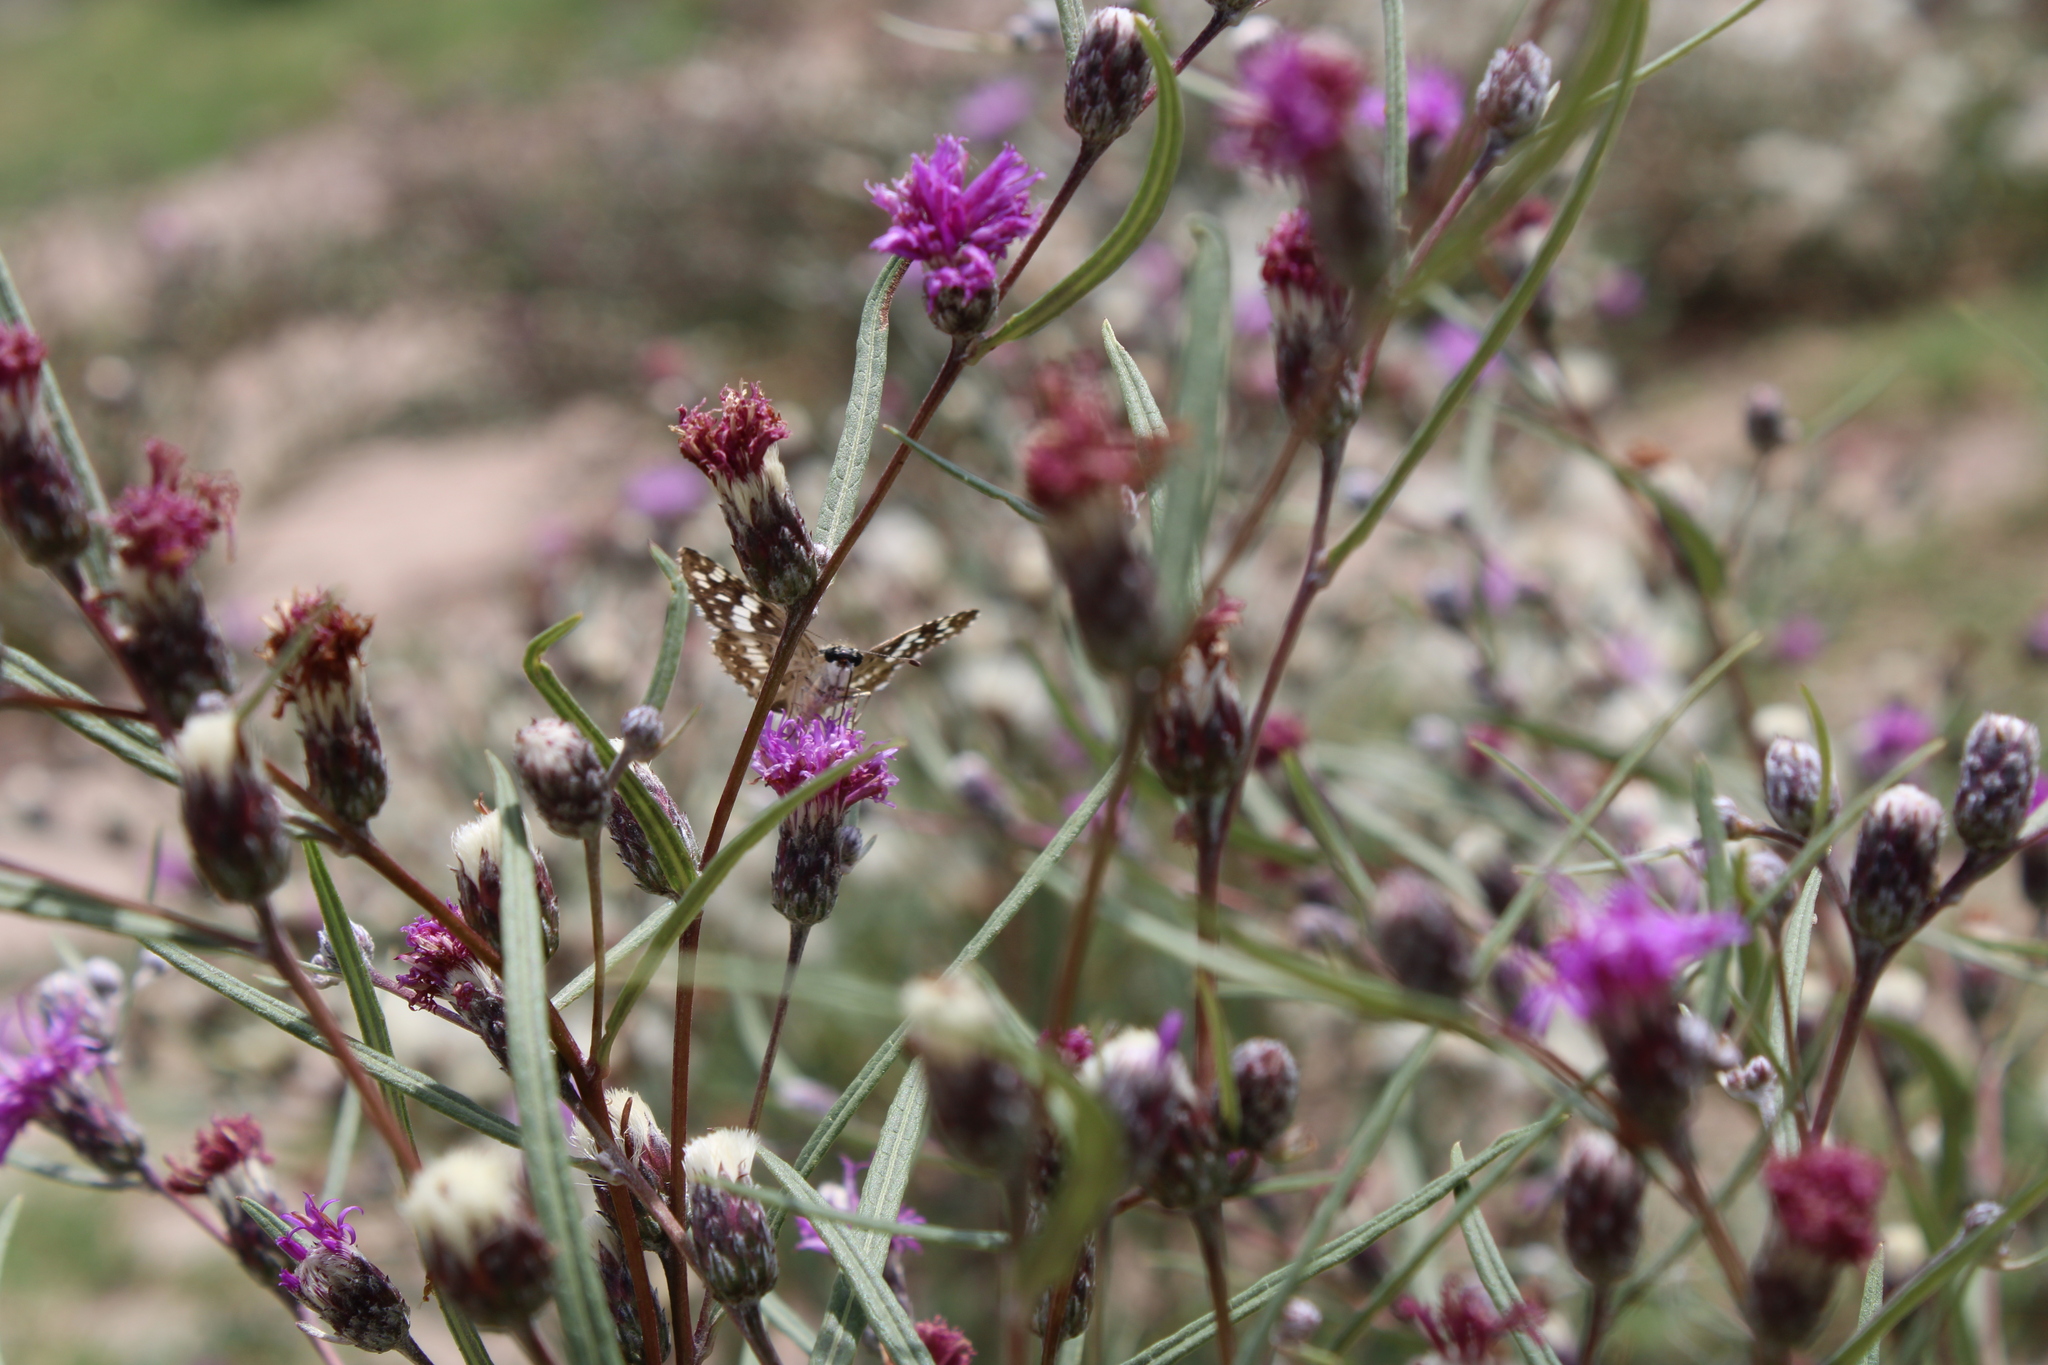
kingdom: Plantae
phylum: Tracheophyta
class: Magnoliopsida
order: Asterales
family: Asteraceae
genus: Lessingianthus
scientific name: Lessingianthus rubricaulis
